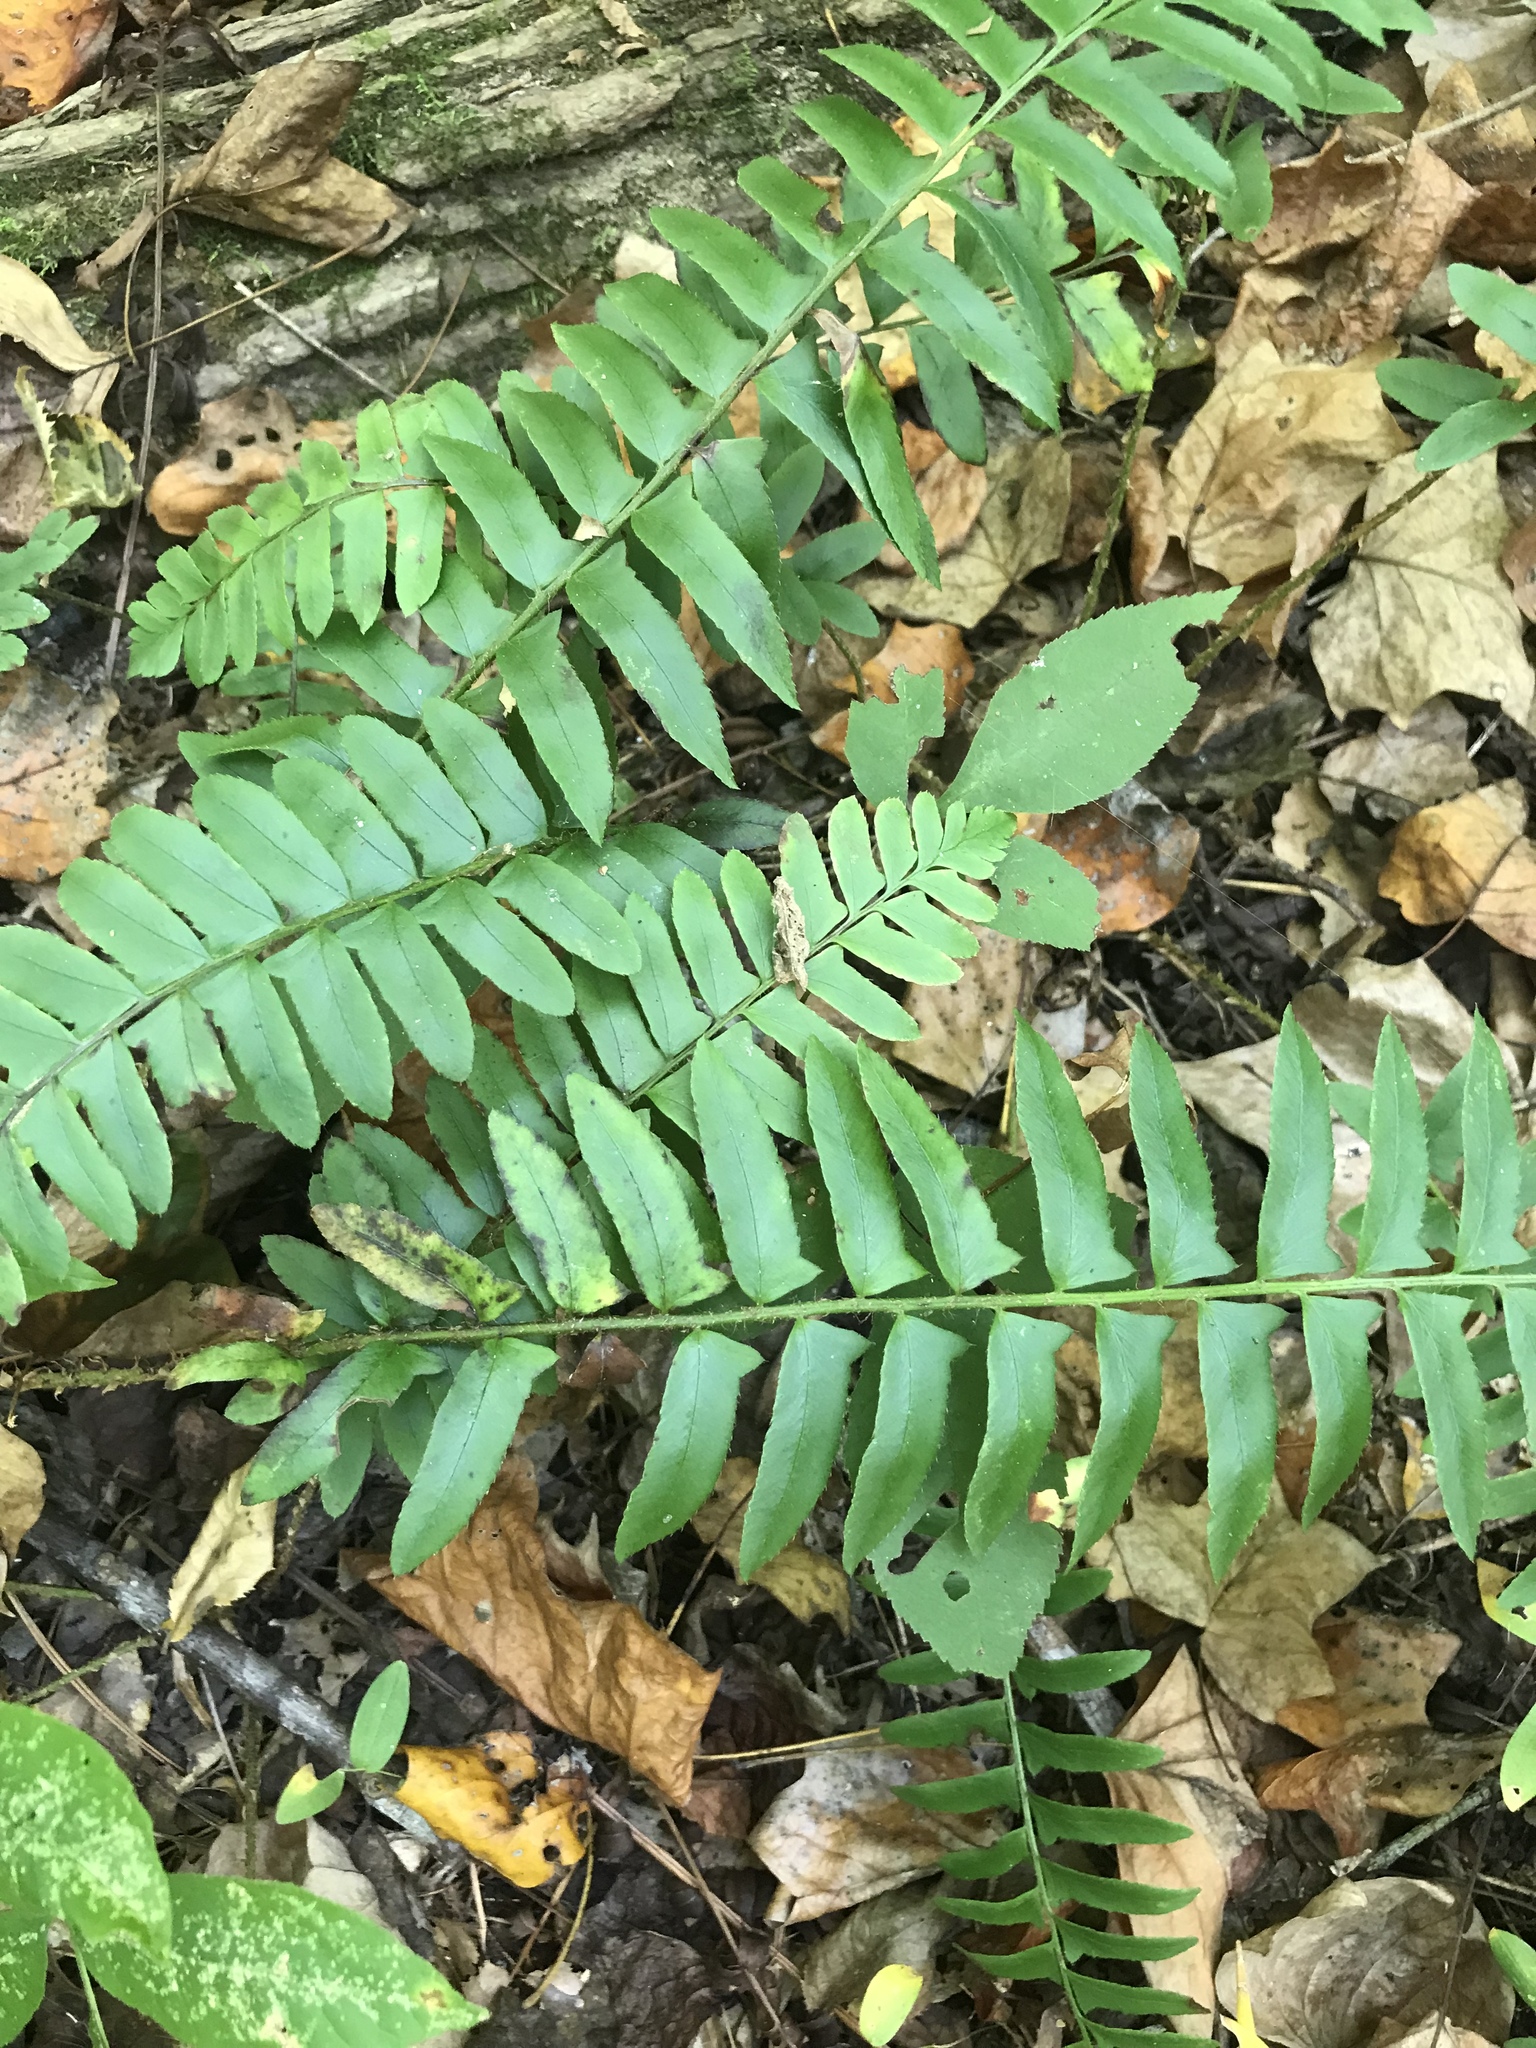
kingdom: Plantae
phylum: Tracheophyta
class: Polypodiopsida
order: Polypodiales
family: Dryopteridaceae
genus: Polystichum
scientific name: Polystichum acrostichoides
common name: Christmas fern
